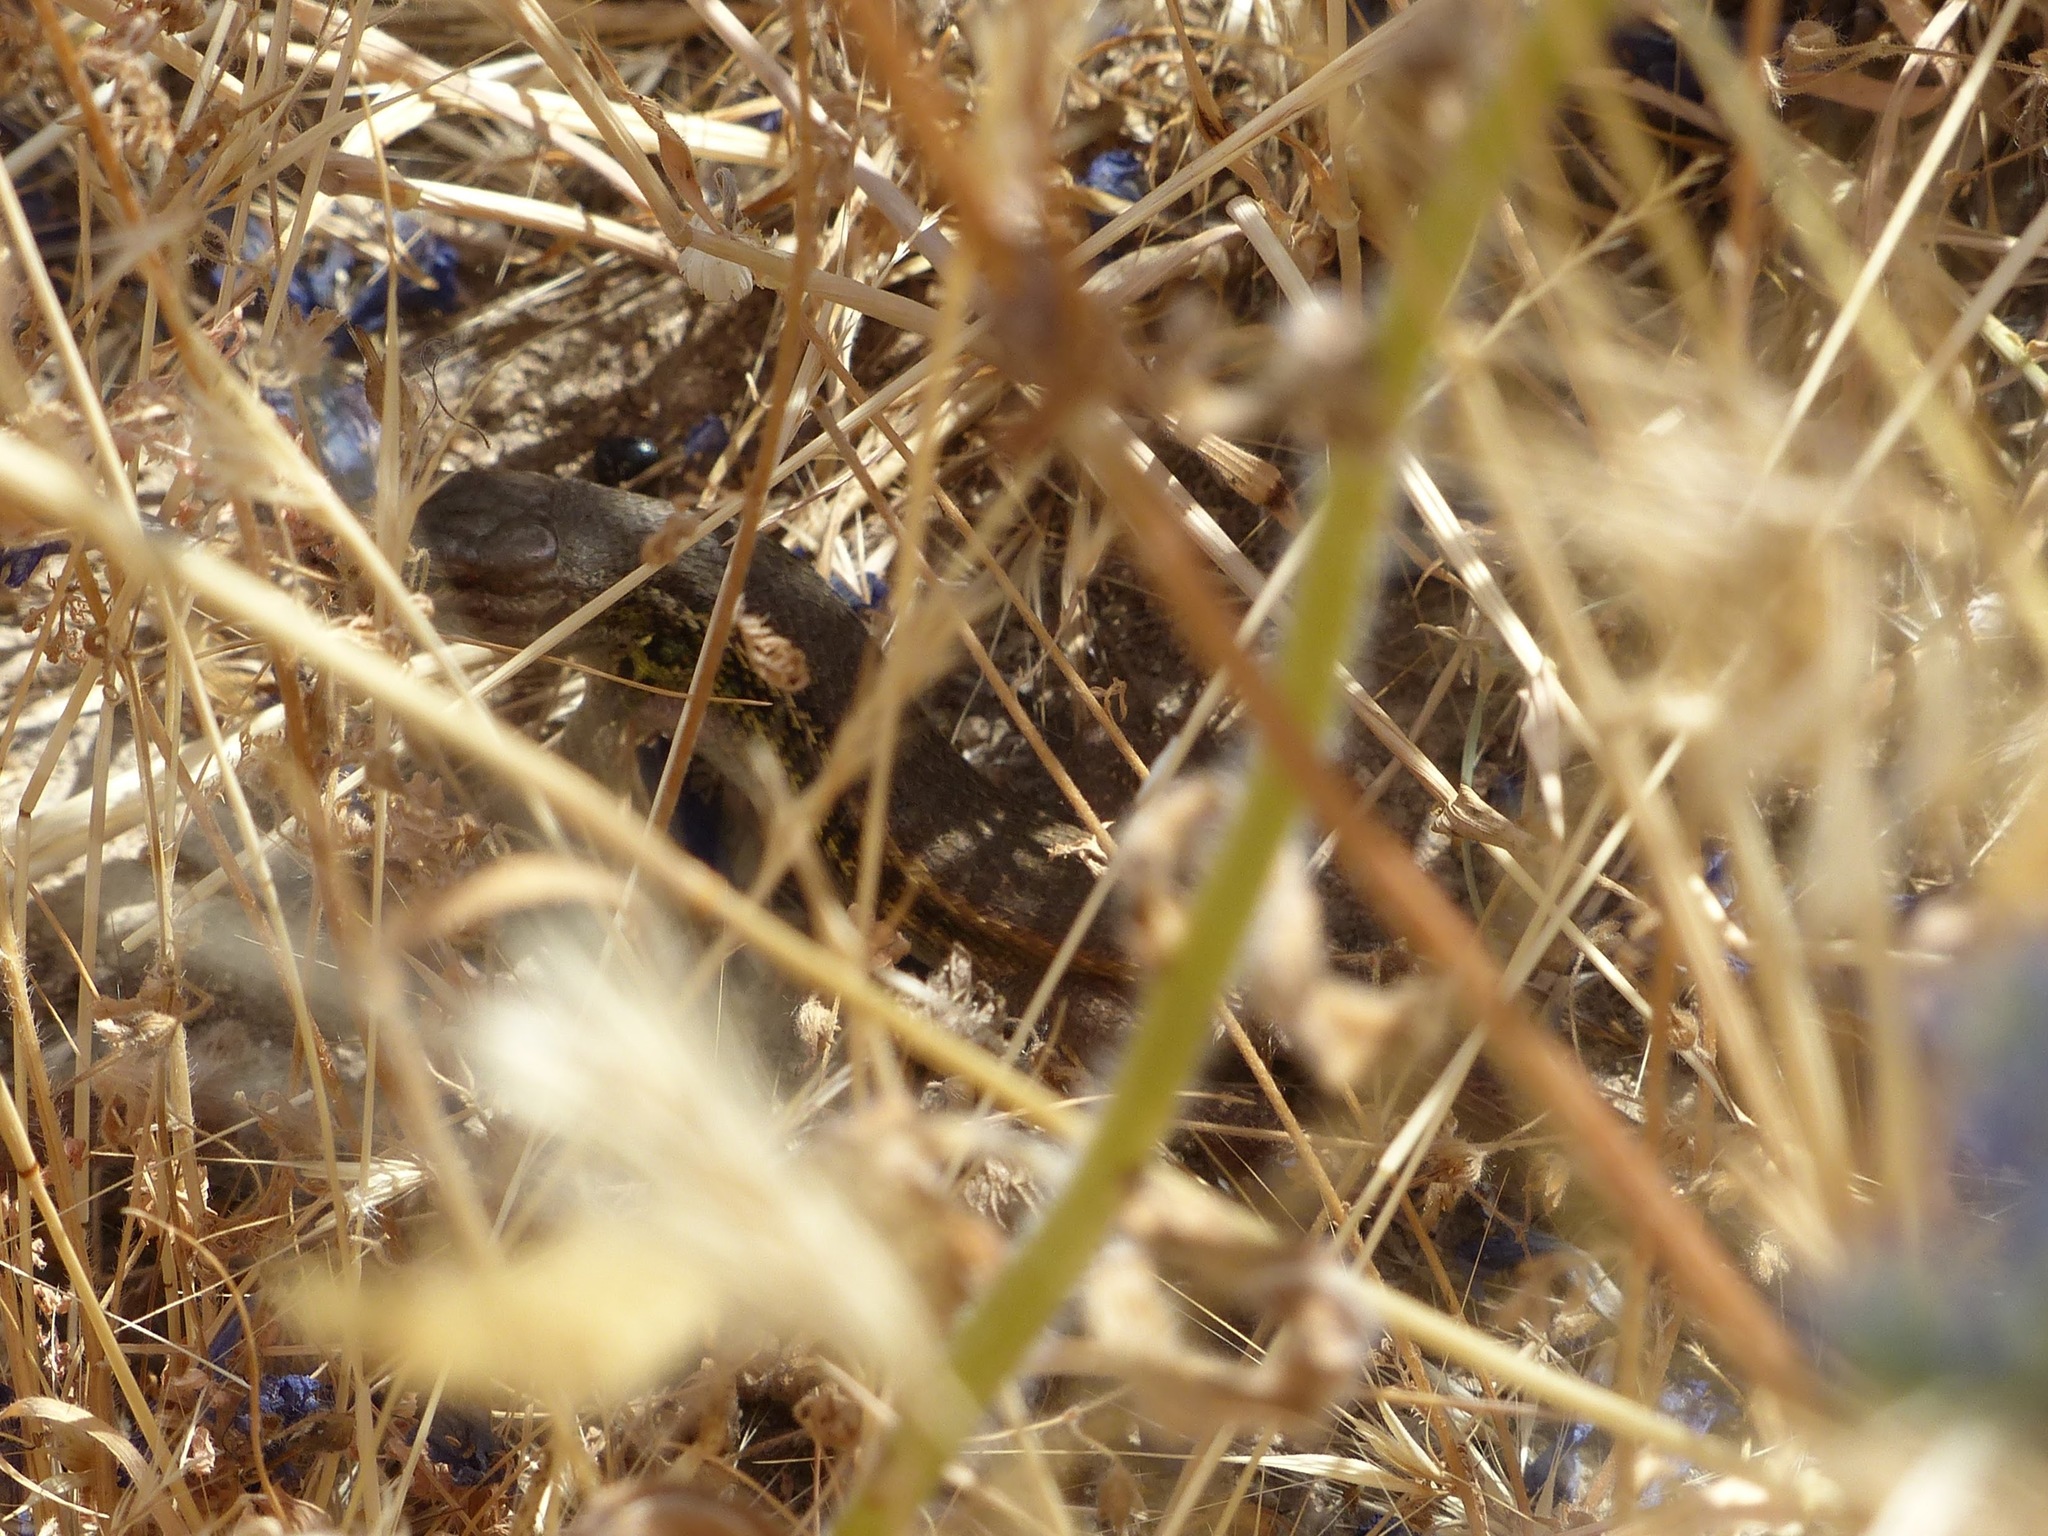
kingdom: Animalia
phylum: Chordata
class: Squamata
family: Lacertidae
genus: Psammodromus
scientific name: Psammodromus algirus
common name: Algerian psammodromus
